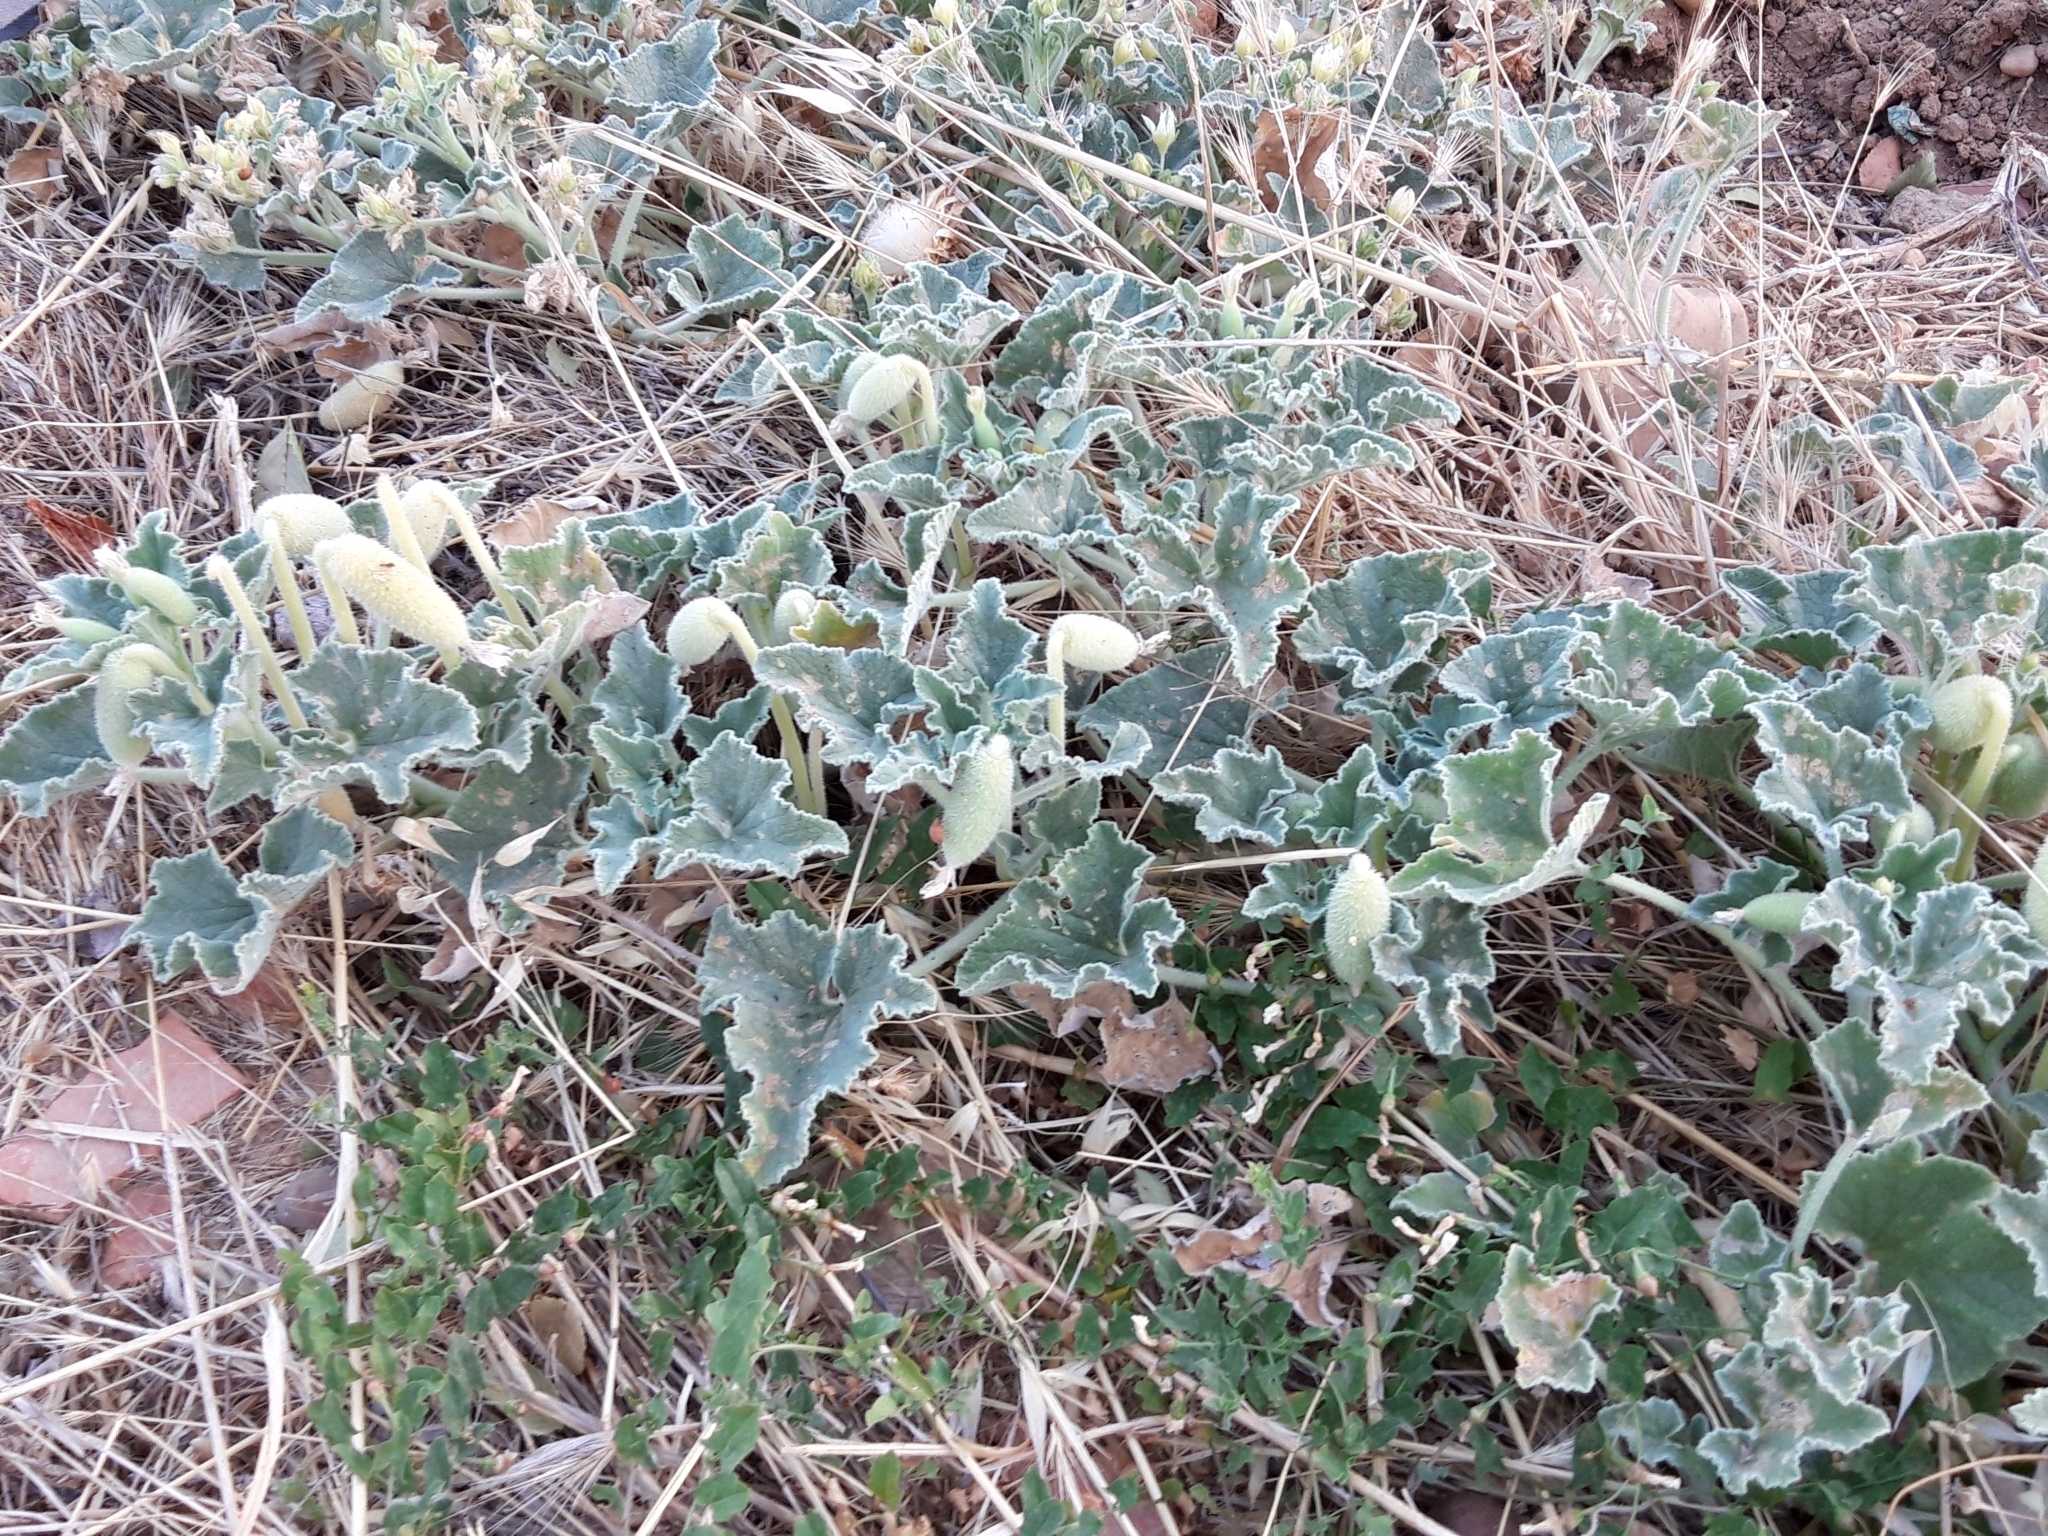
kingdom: Plantae
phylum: Tracheophyta
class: Magnoliopsida
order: Cucurbitales
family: Cucurbitaceae
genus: Ecballium
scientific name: Ecballium elaterium
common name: Squirting cucumber
